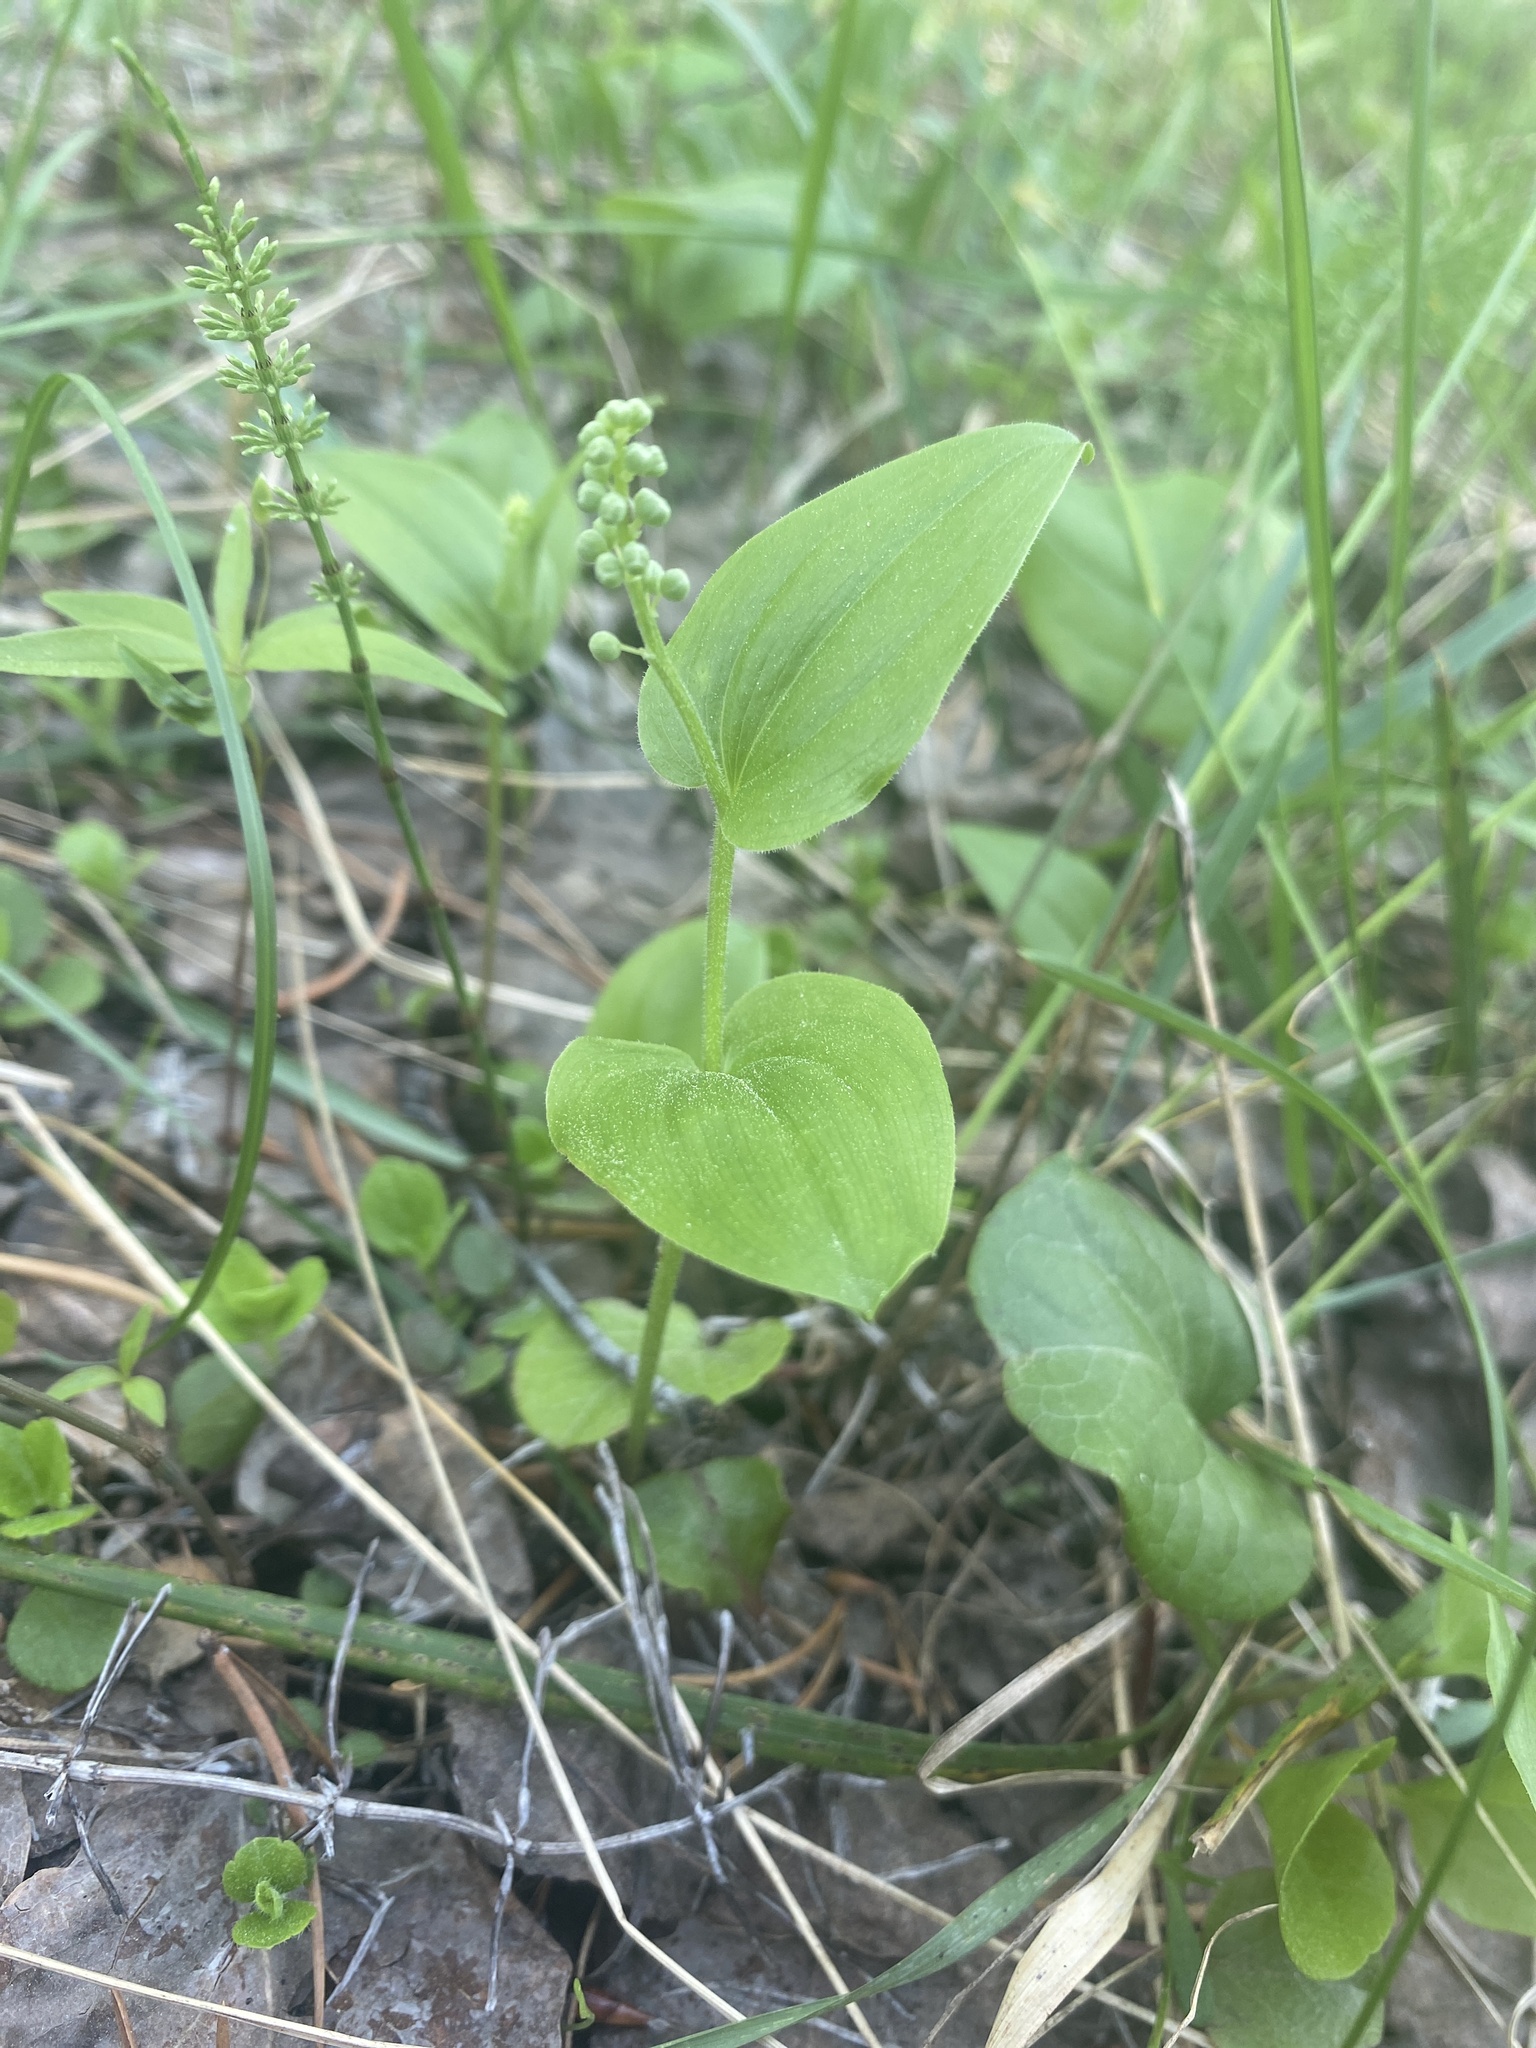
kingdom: Plantae
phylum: Tracheophyta
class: Liliopsida
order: Asparagales
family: Asparagaceae
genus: Maianthemum
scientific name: Maianthemum canadense
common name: False lily-of-the-valley
